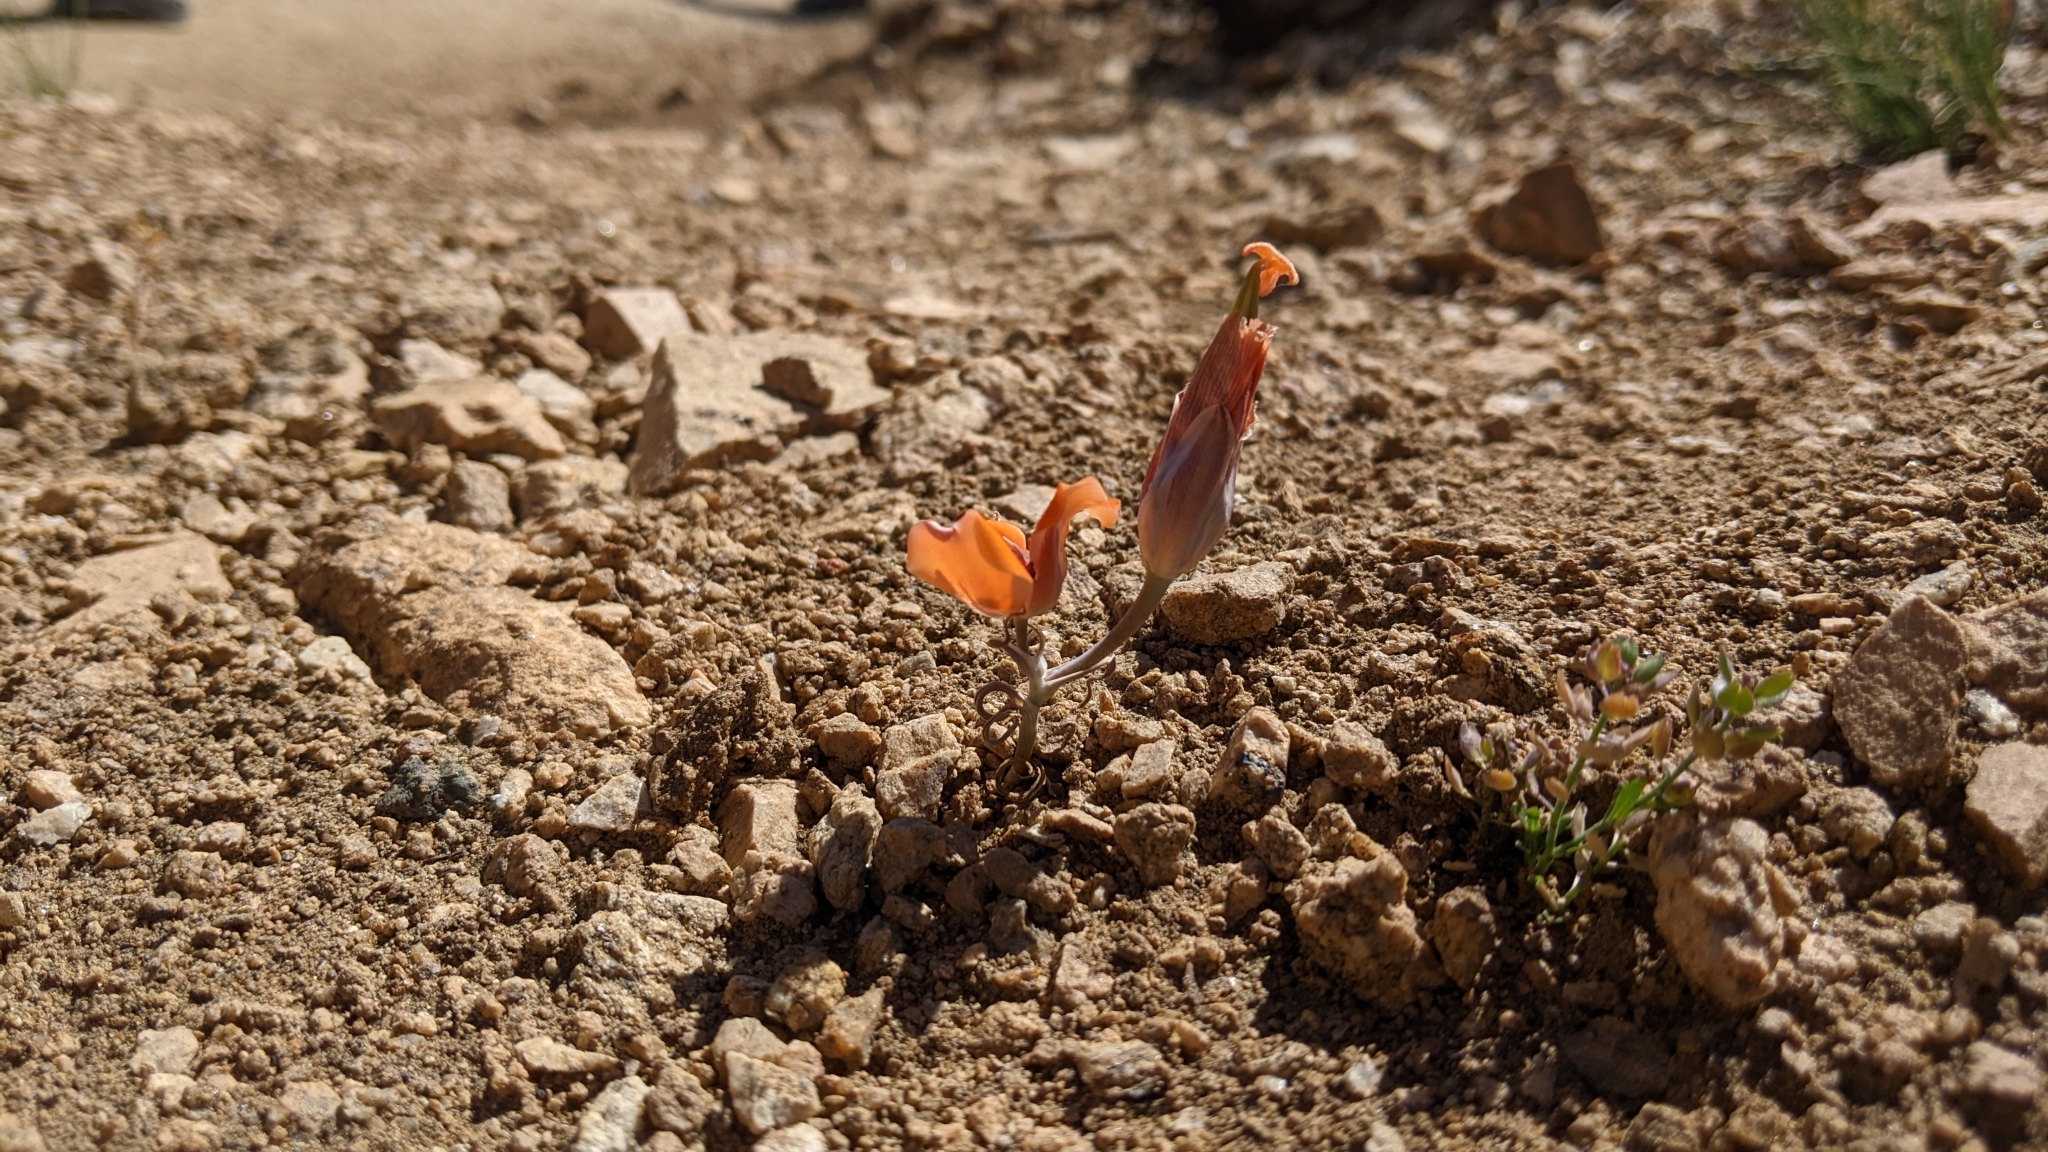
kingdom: Plantae
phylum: Tracheophyta
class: Liliopsida
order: Liliales
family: Liliaceae
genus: Calochortus
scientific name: Calochortus kennedyi
